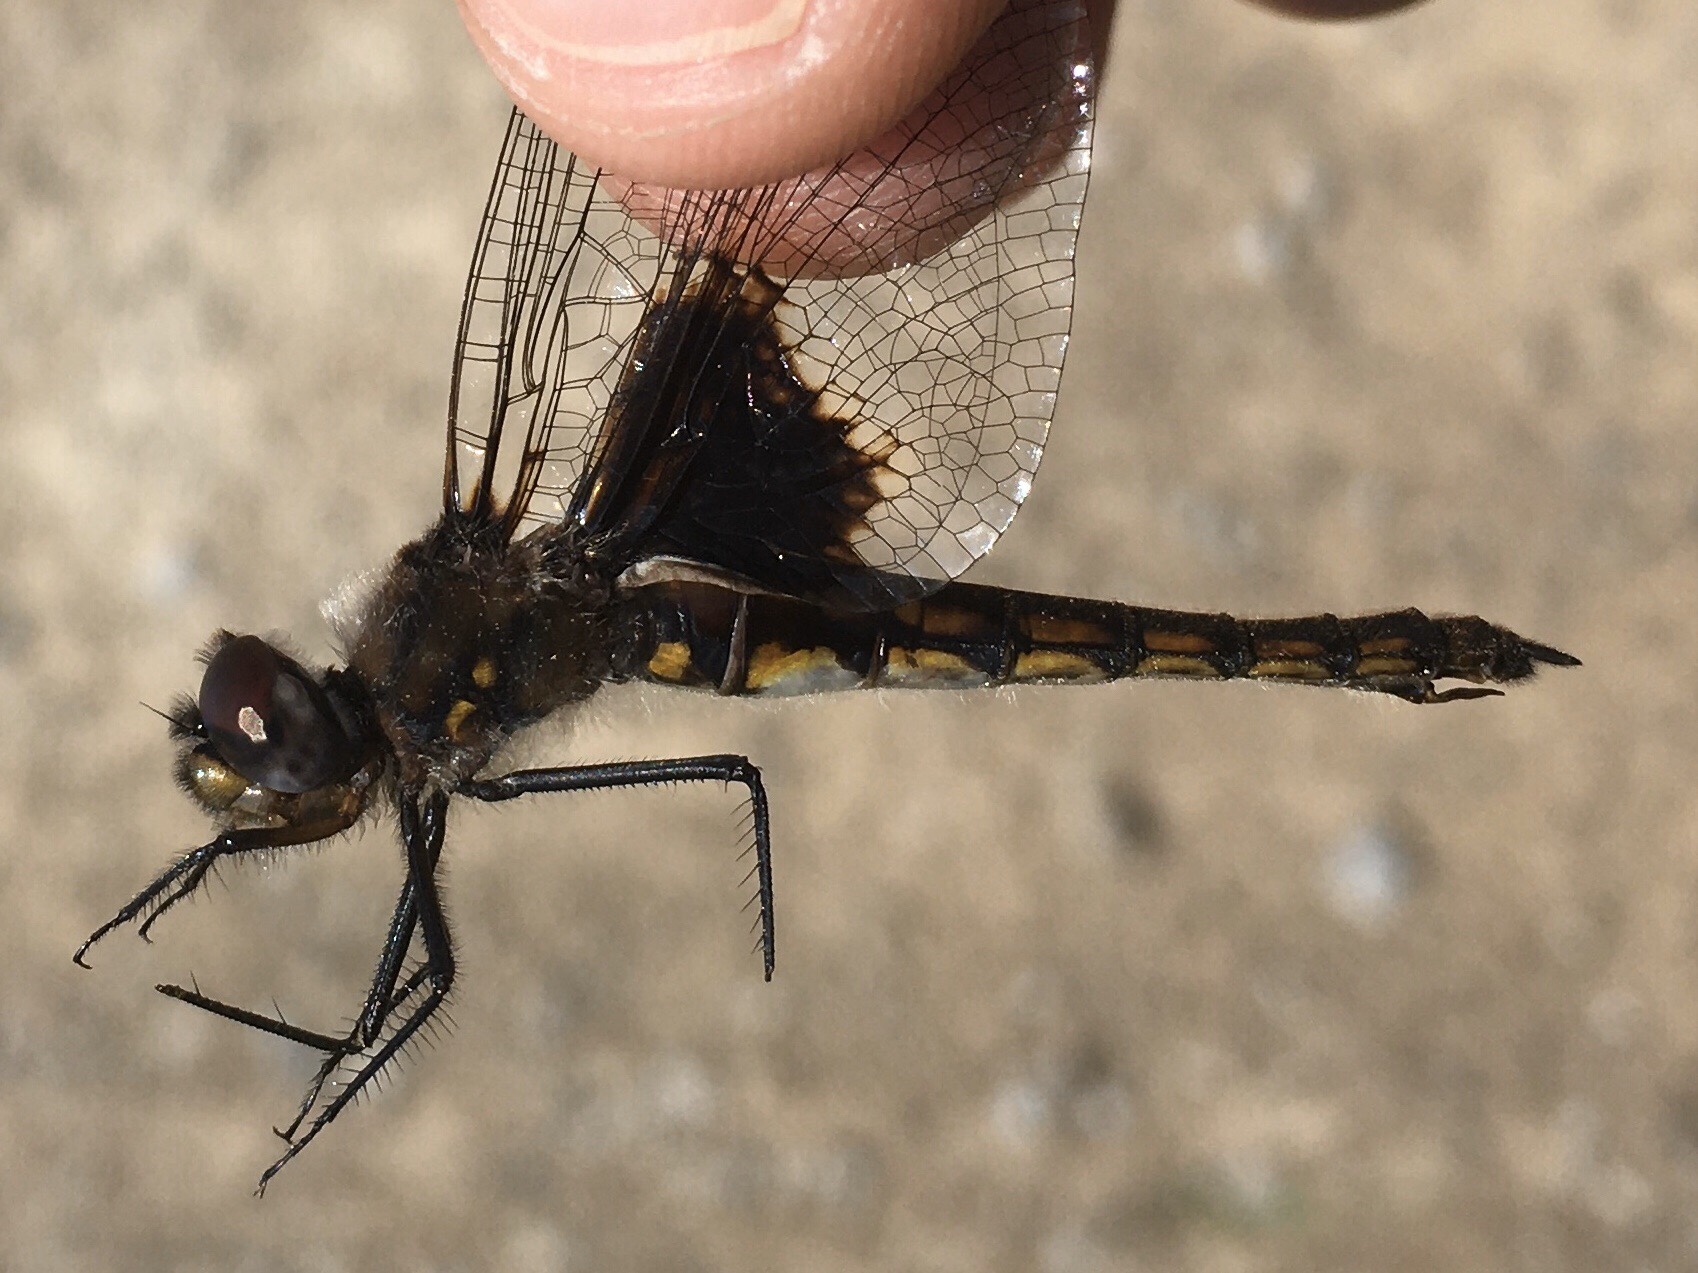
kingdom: Animalia
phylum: Arthropoda
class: Insecta
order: Odonata
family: Corduliidae
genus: Epitheca
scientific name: Epitheca cynosura
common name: Common baskettail
